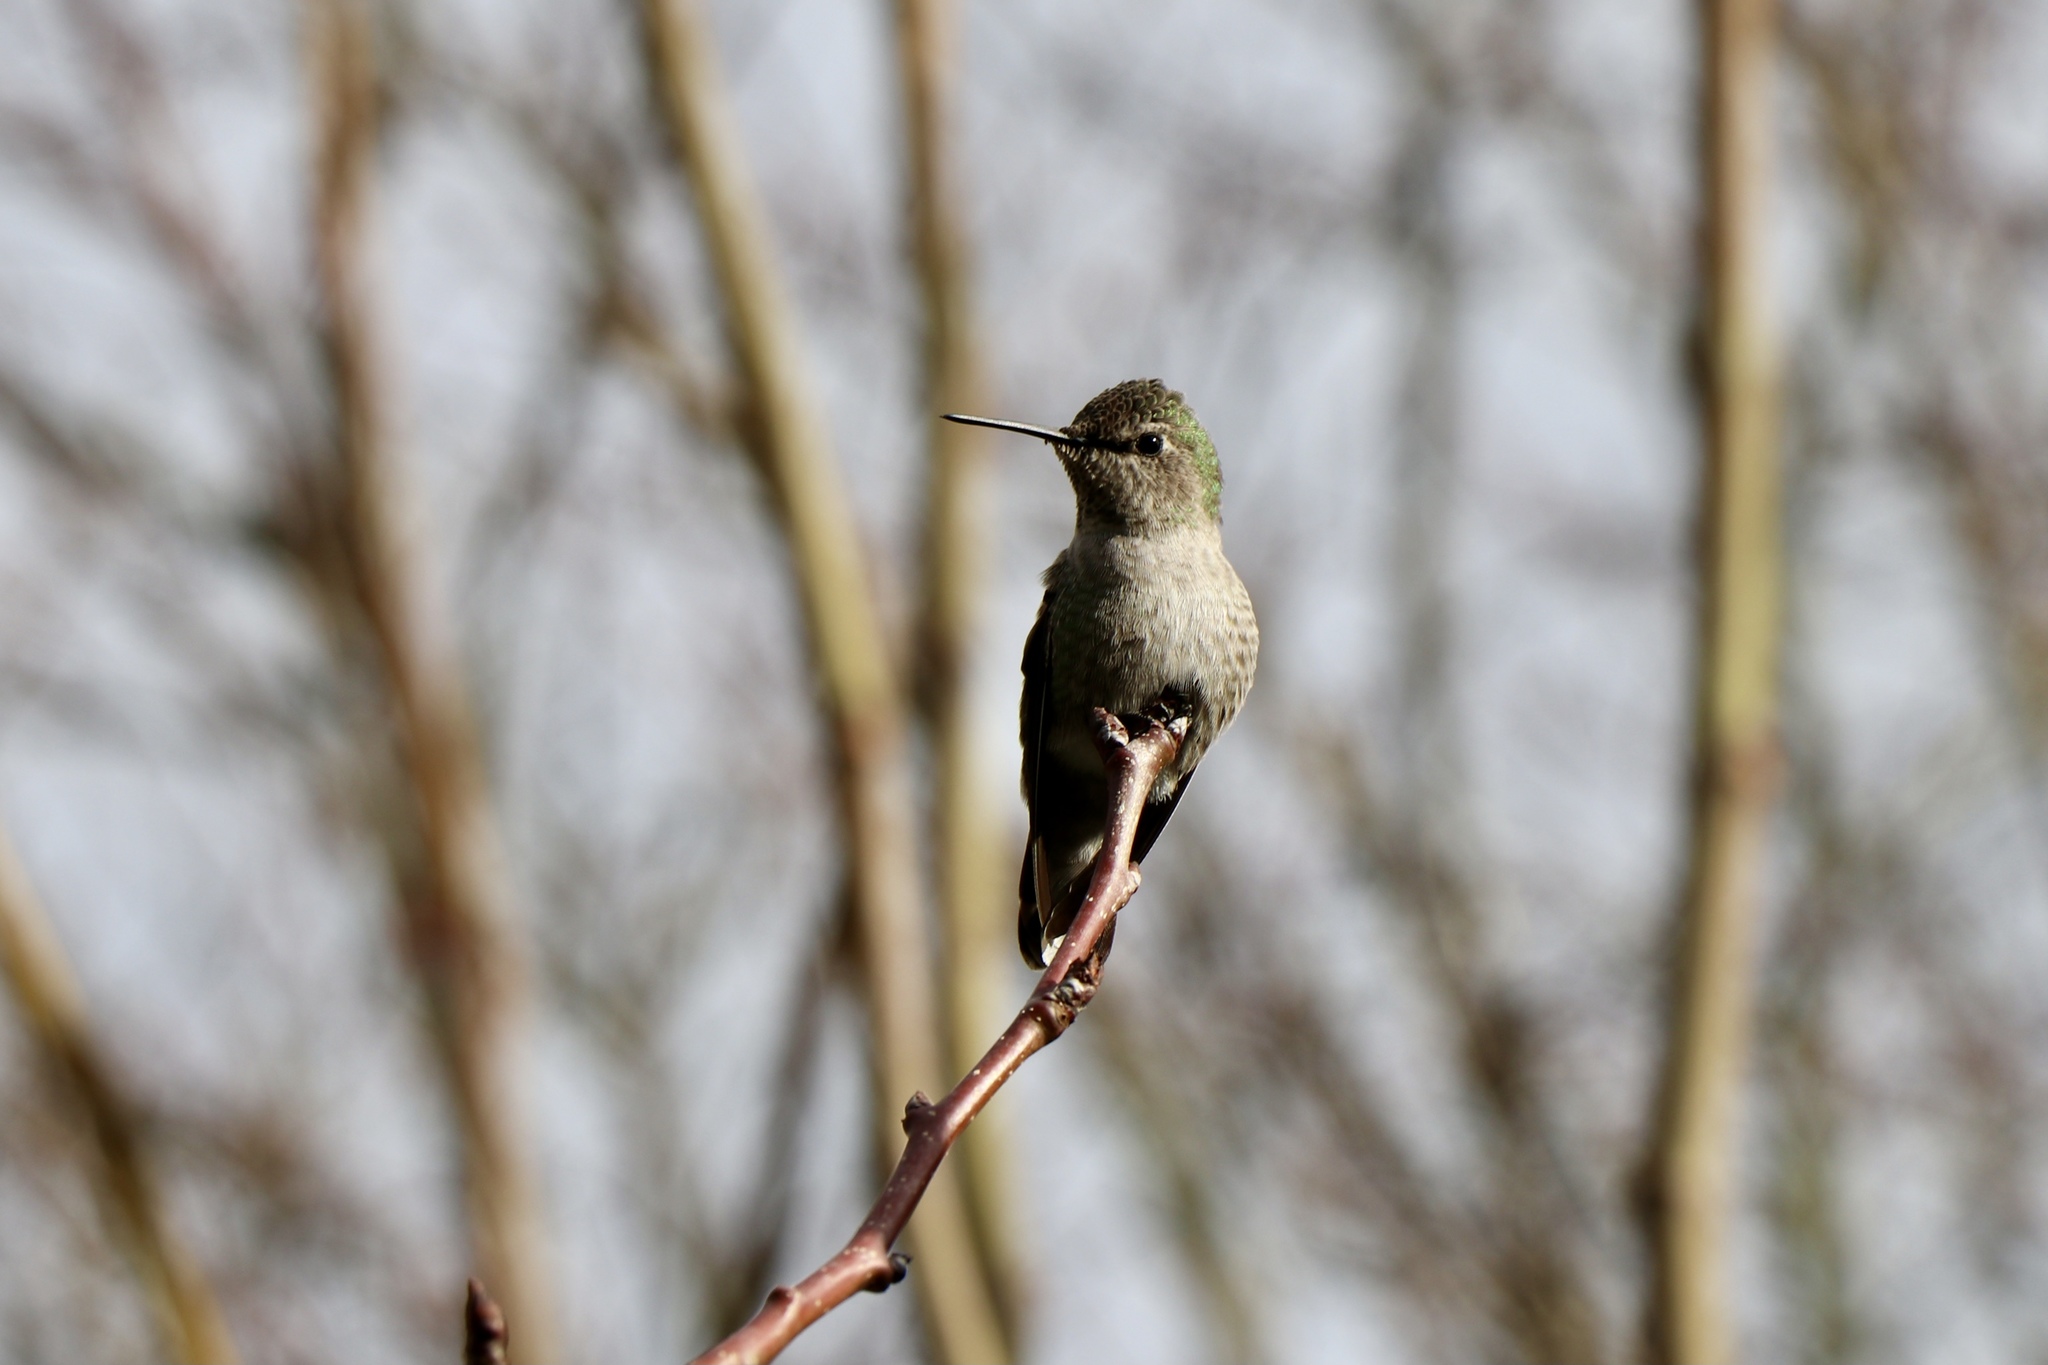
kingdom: Animalia
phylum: Chordata
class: Aves
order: Apodiformes
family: Trochilidae
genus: Calypte
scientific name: Calypte anna
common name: Anna's hummingbird
